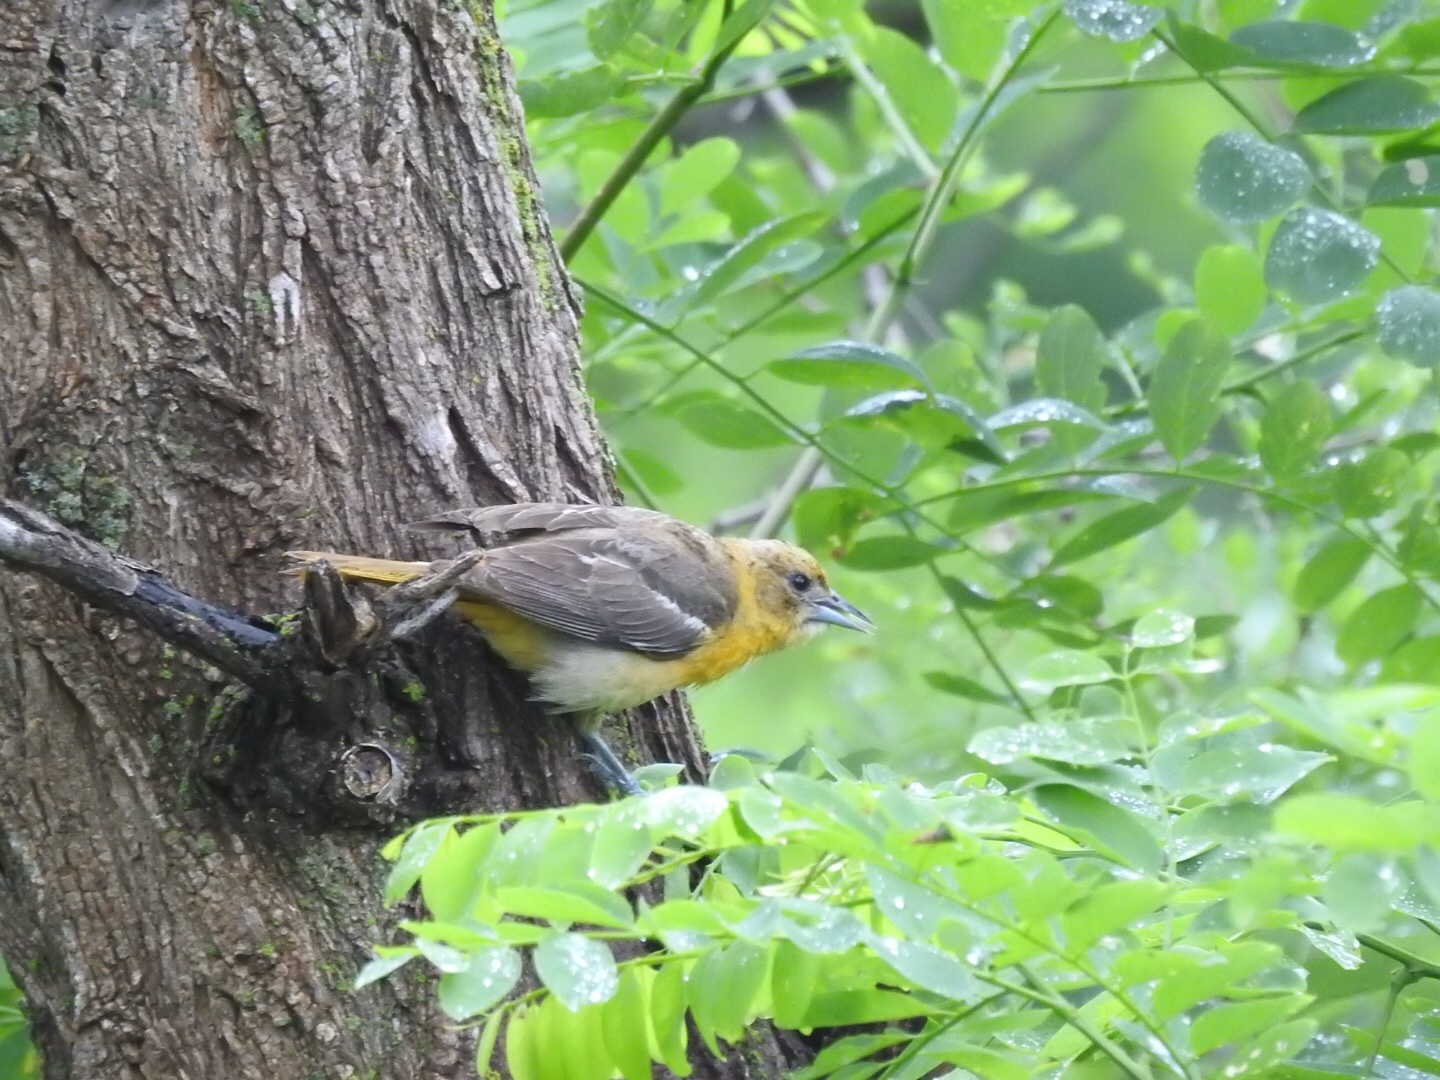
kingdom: Animalia
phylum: Chordata
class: Aves
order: Passeriformes
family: Icteridae
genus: Icterus
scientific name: Icterus galbula
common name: Baltimore oriole
